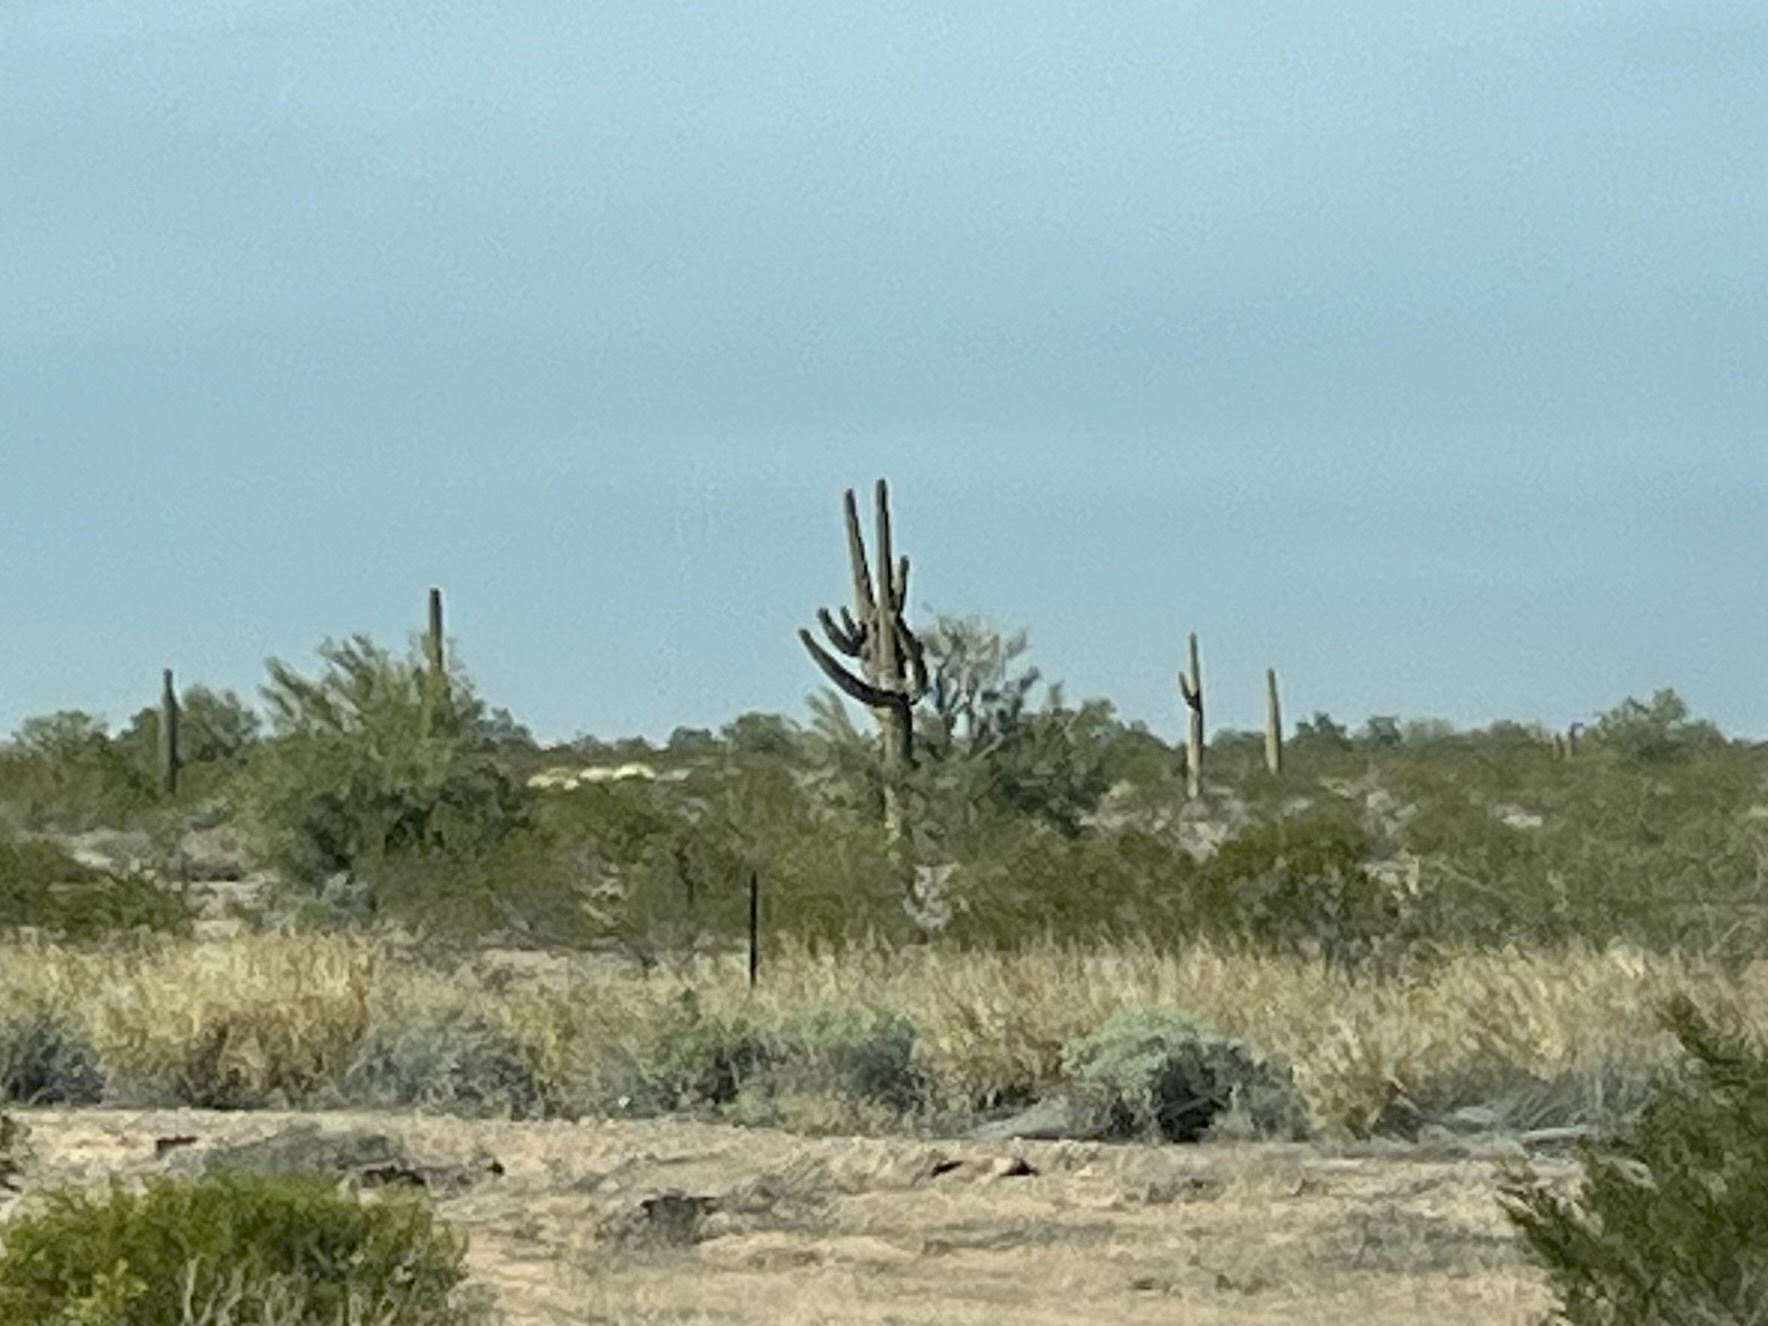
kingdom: Plantae
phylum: Tracheophyta
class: Magnoliopsida
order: Caryophyllales
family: Cactaceae
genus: Carnegiea
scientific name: Carnegiea gigantea
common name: Saguaro
